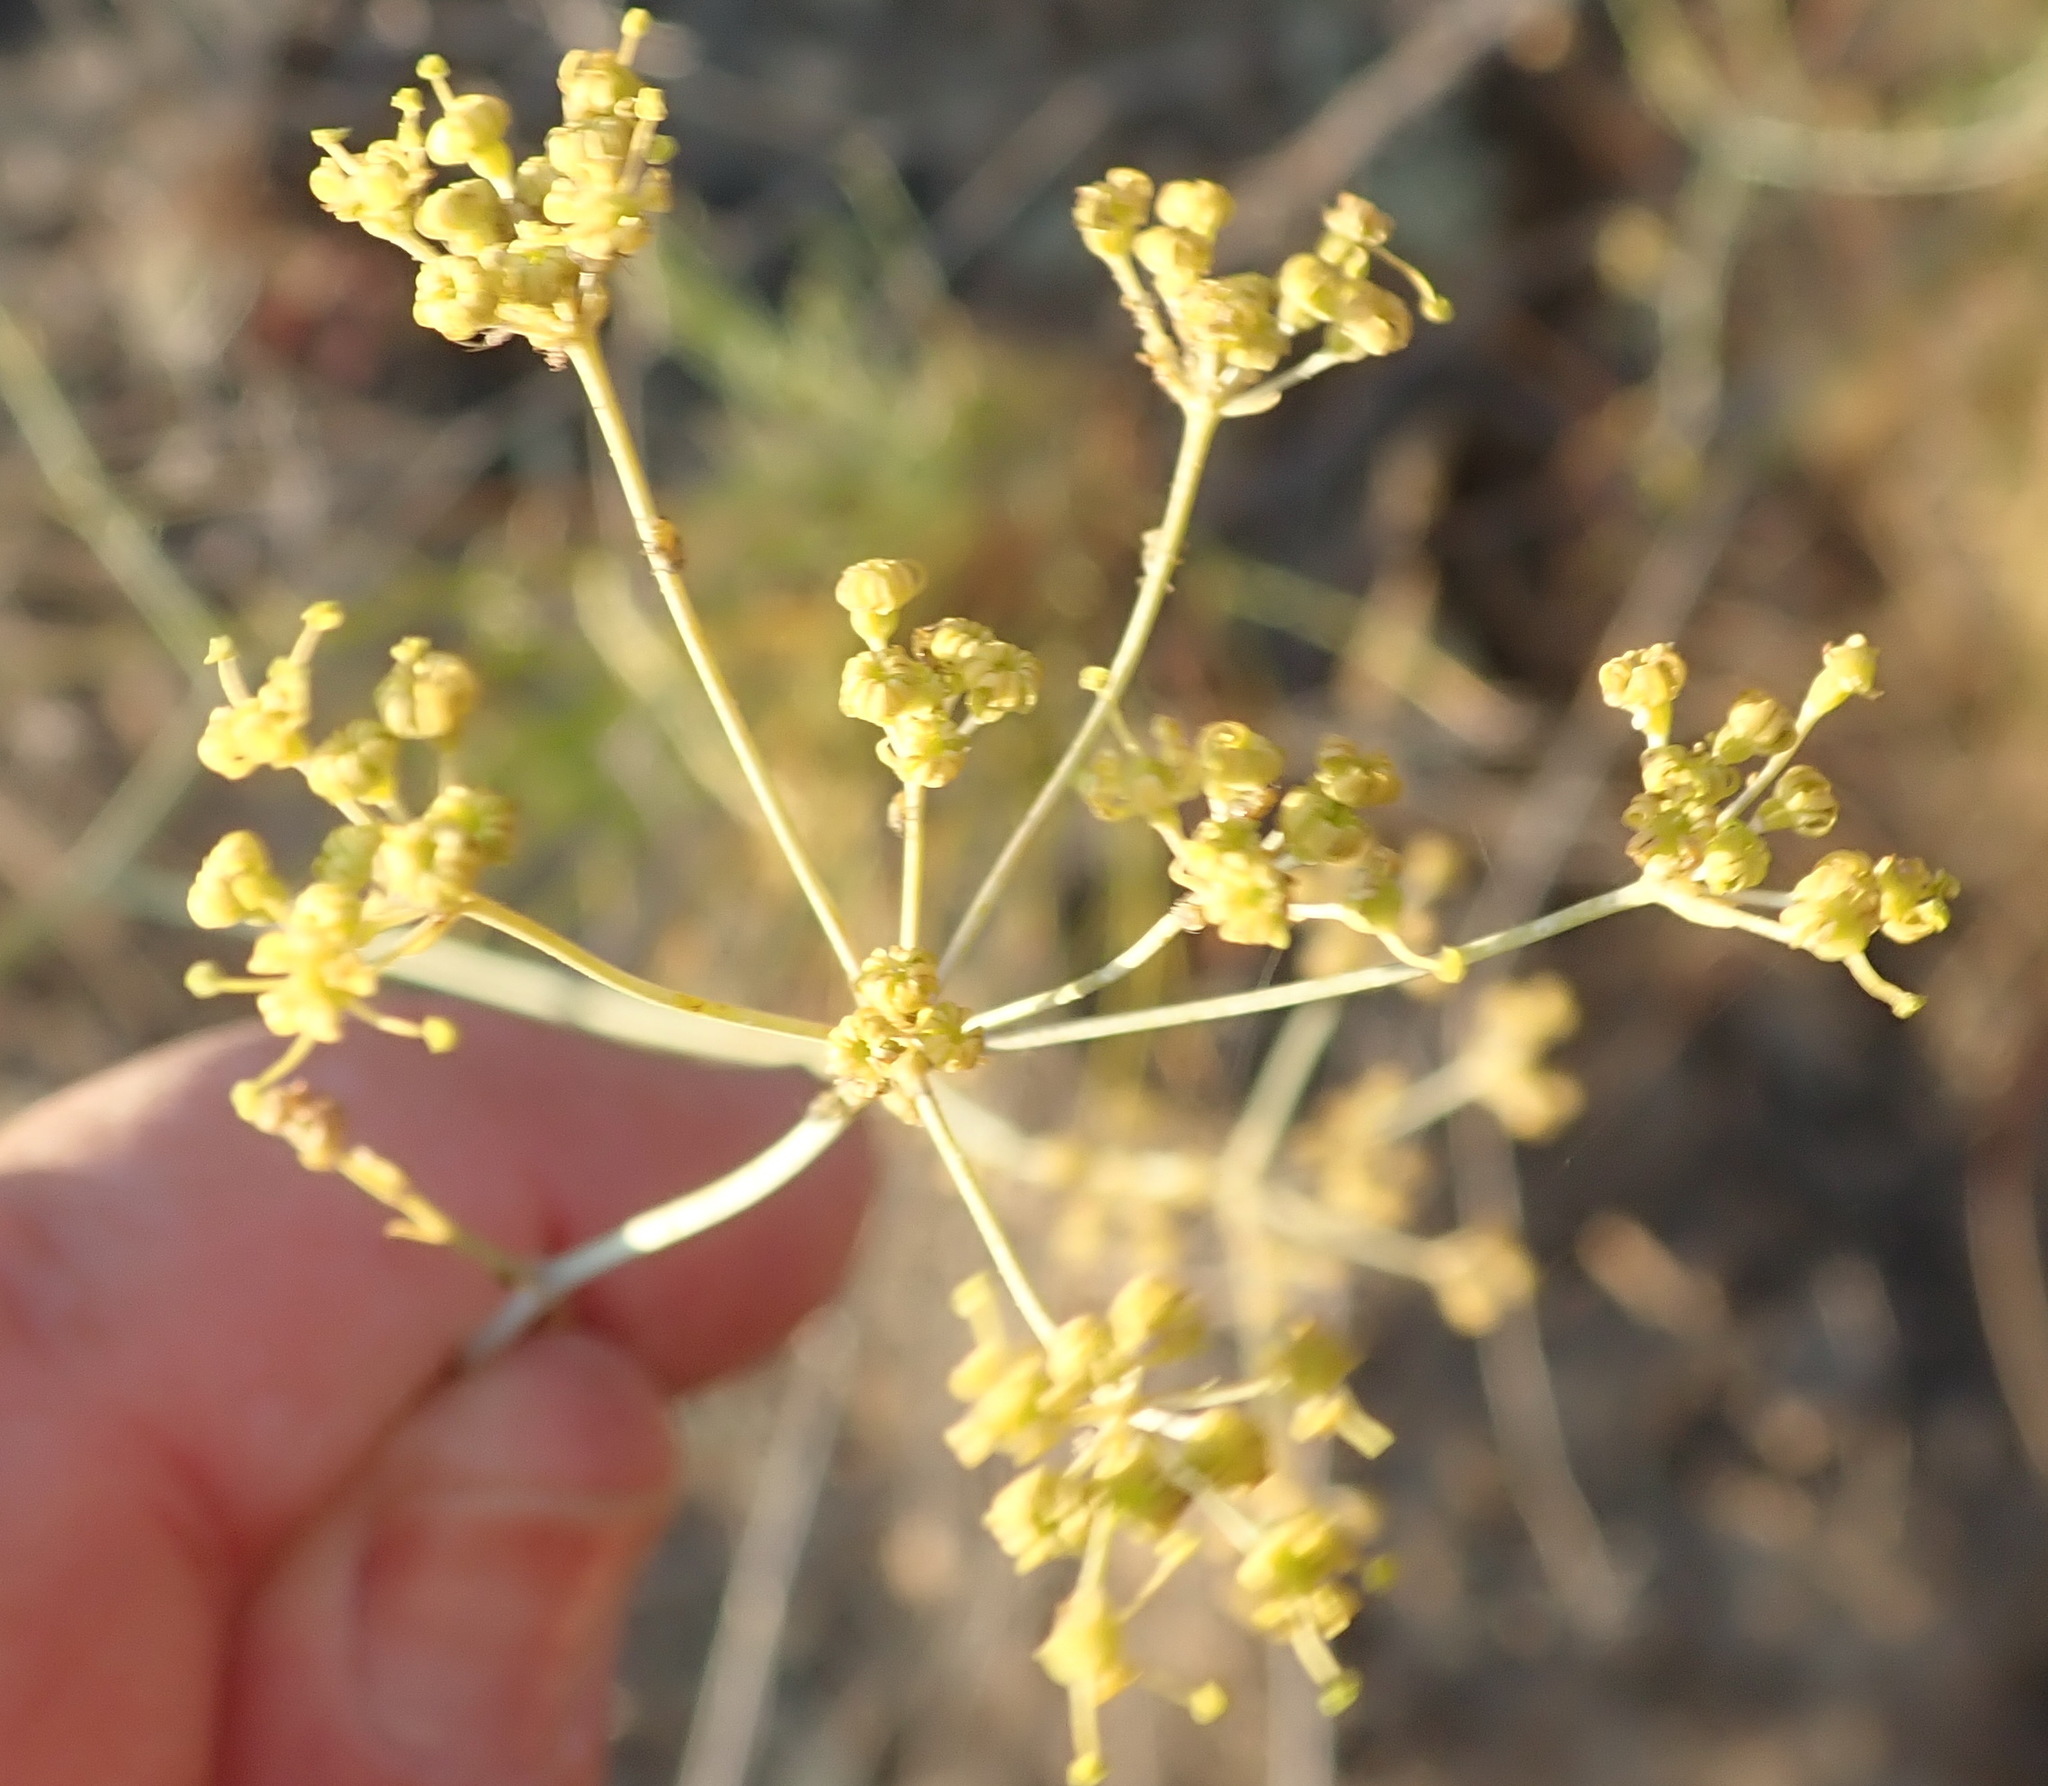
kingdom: Plantae
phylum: Tracheophyta
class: Magnoliopsida
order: Apiales
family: Apiaceae
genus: Anginon
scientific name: Anginon swellendamense
